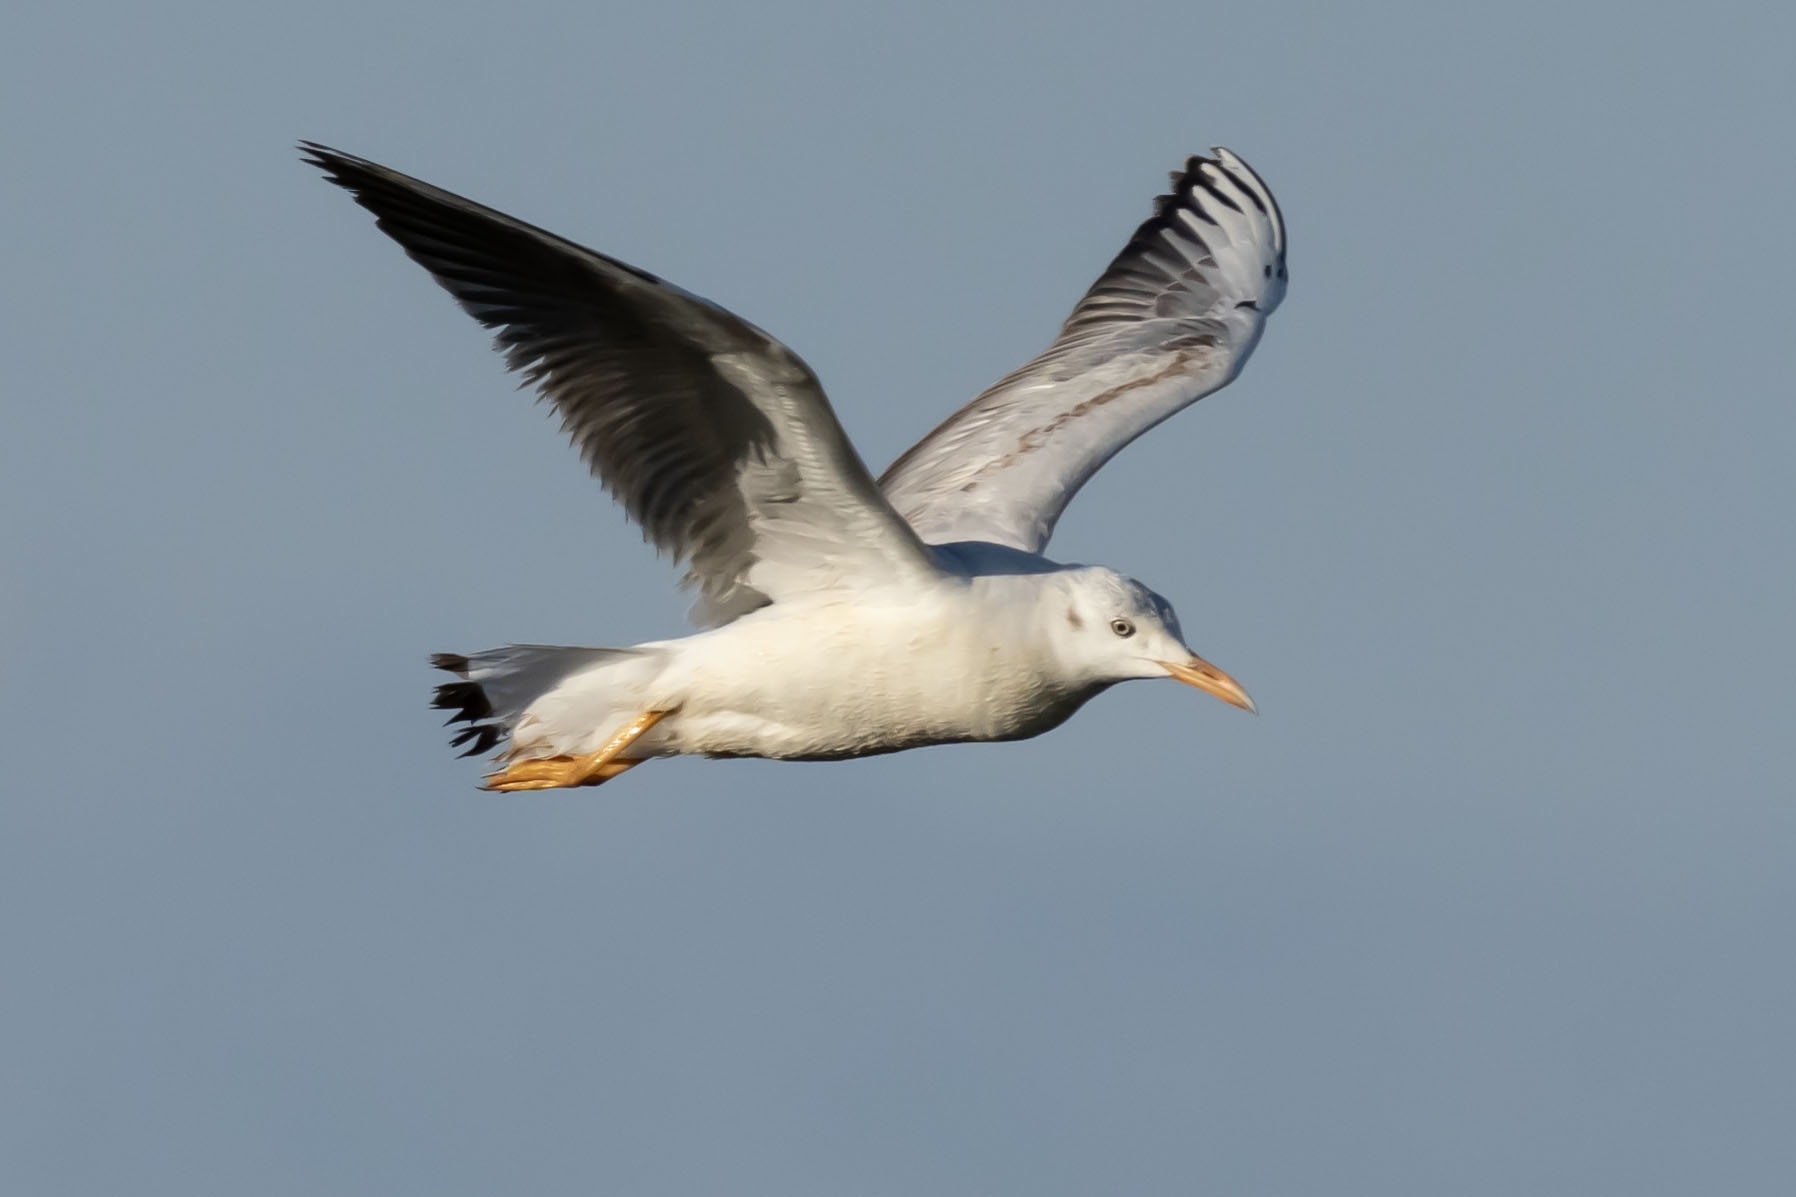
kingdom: Animalia
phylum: Chordata
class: Aves
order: Charadriiformes
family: Laridae
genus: Chroicocephalus
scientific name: Chroicocephalus genei
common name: Slender-billed gull
